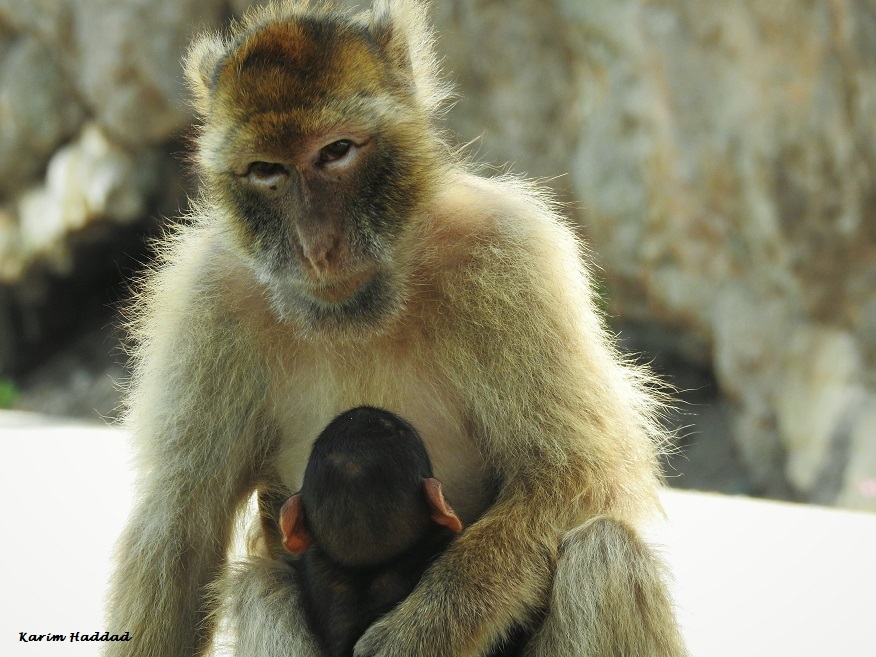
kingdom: Animalia
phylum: Chordata
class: Mammalia
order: Primates
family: Cercopithecidae
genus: Macaca
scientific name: Macaca sylvanus
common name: Barbary macaque
